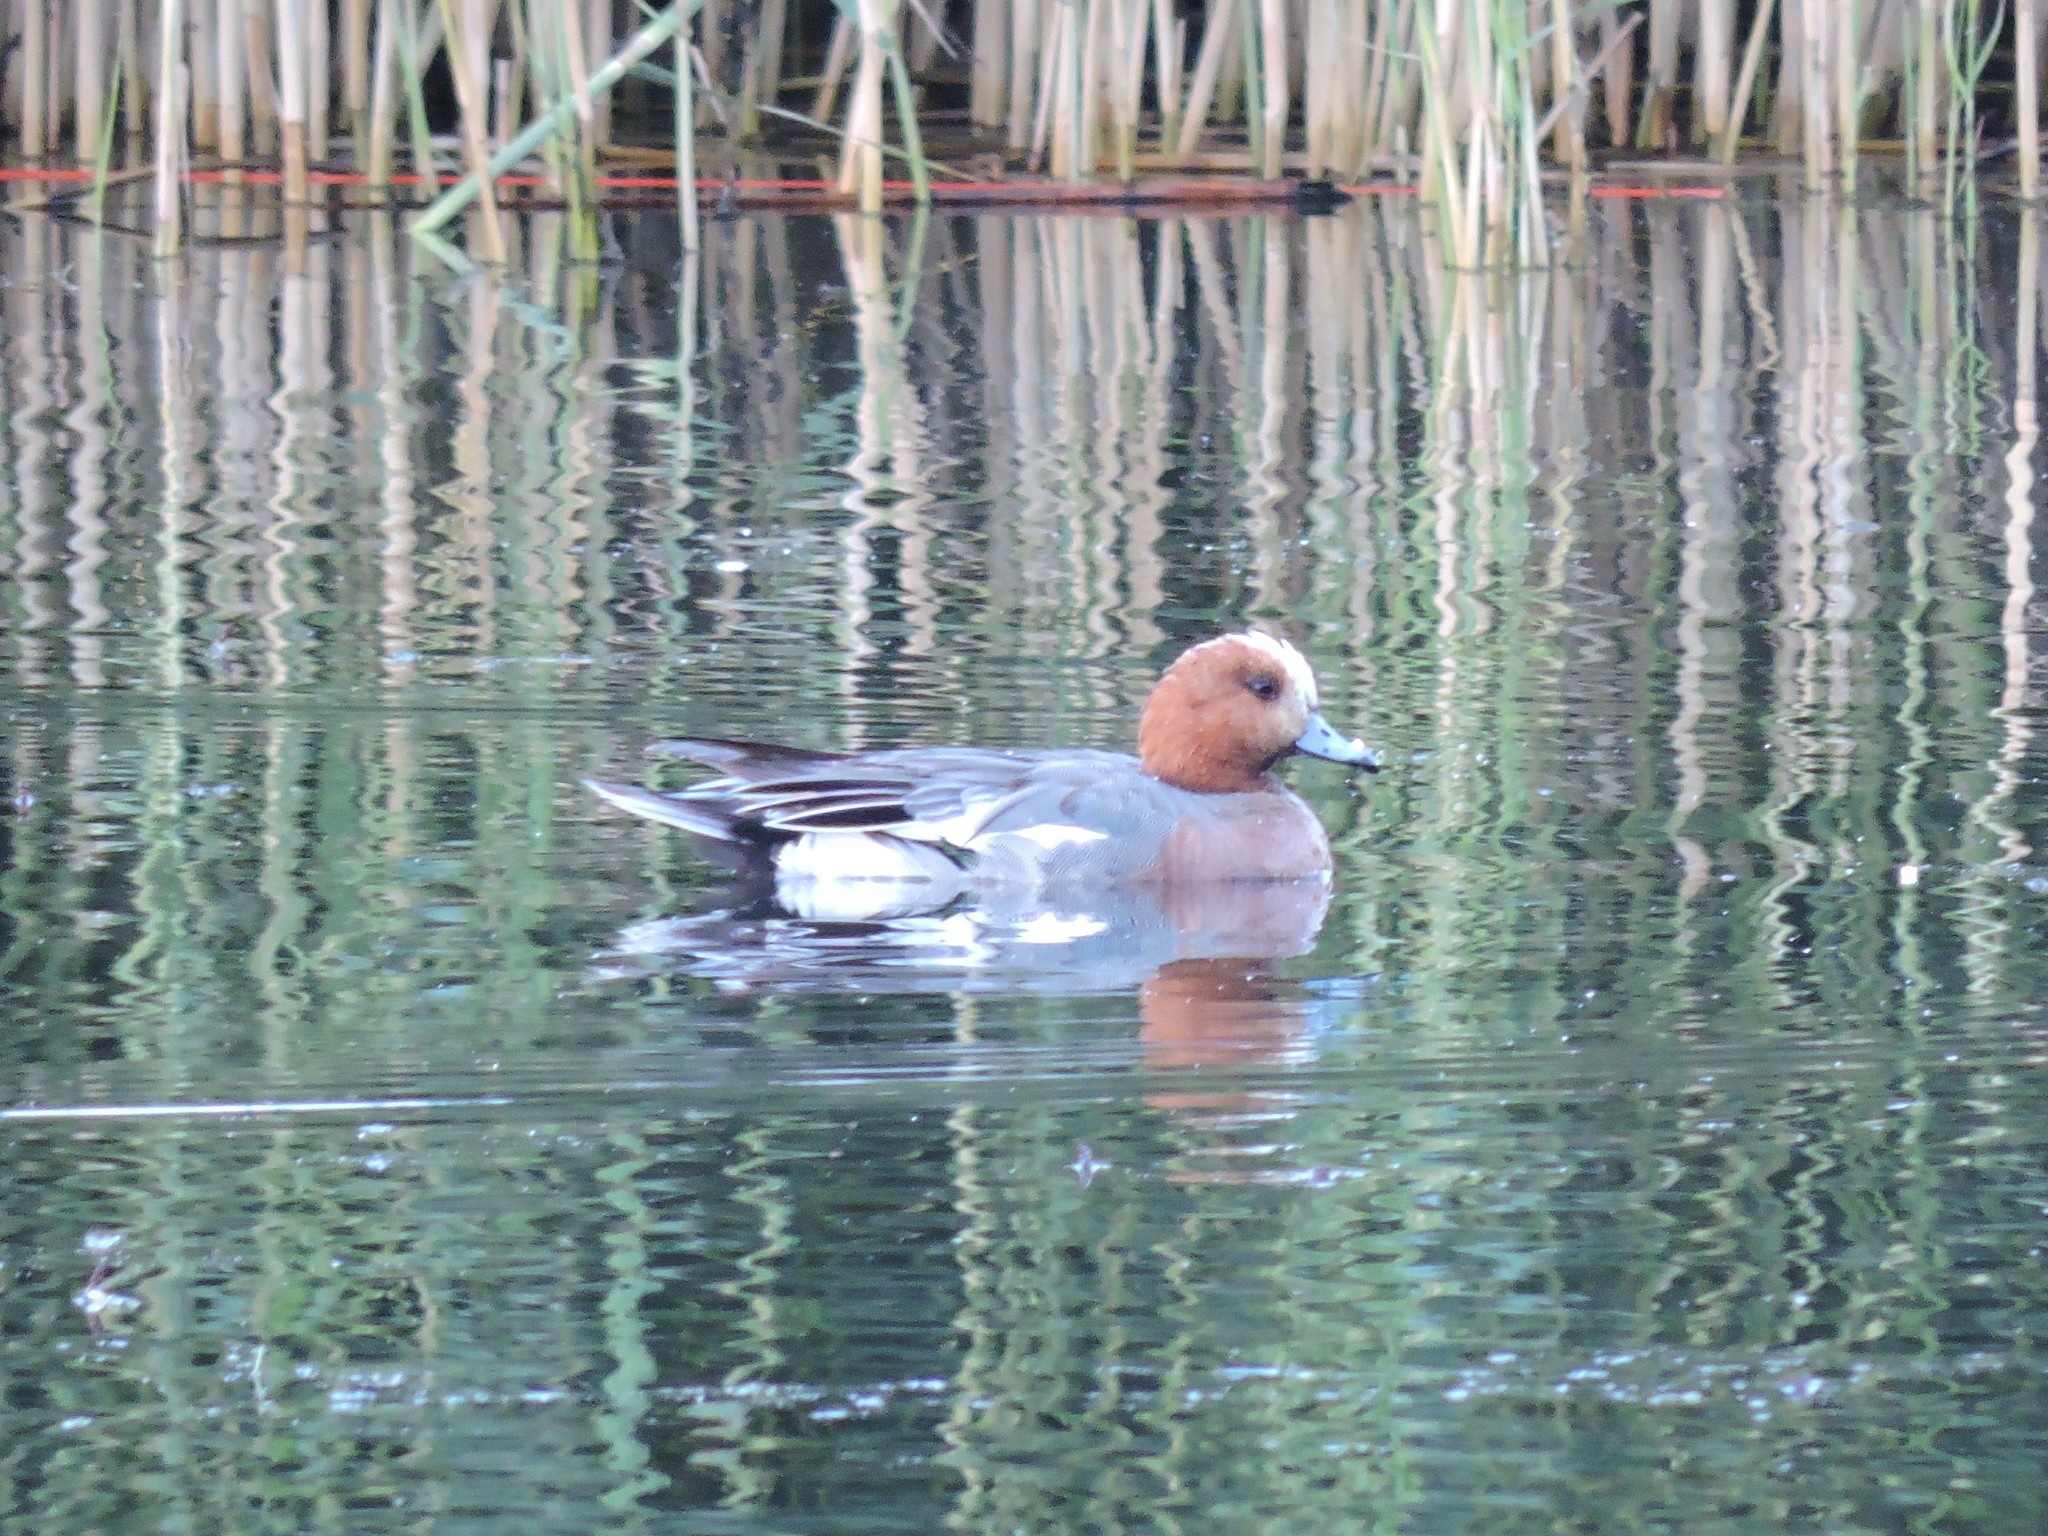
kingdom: Animalia
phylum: Chordata
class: Aves
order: Anseriformes
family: Anatidae
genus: Mareca
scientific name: Mareca penelope
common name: Eurasian wigeon
